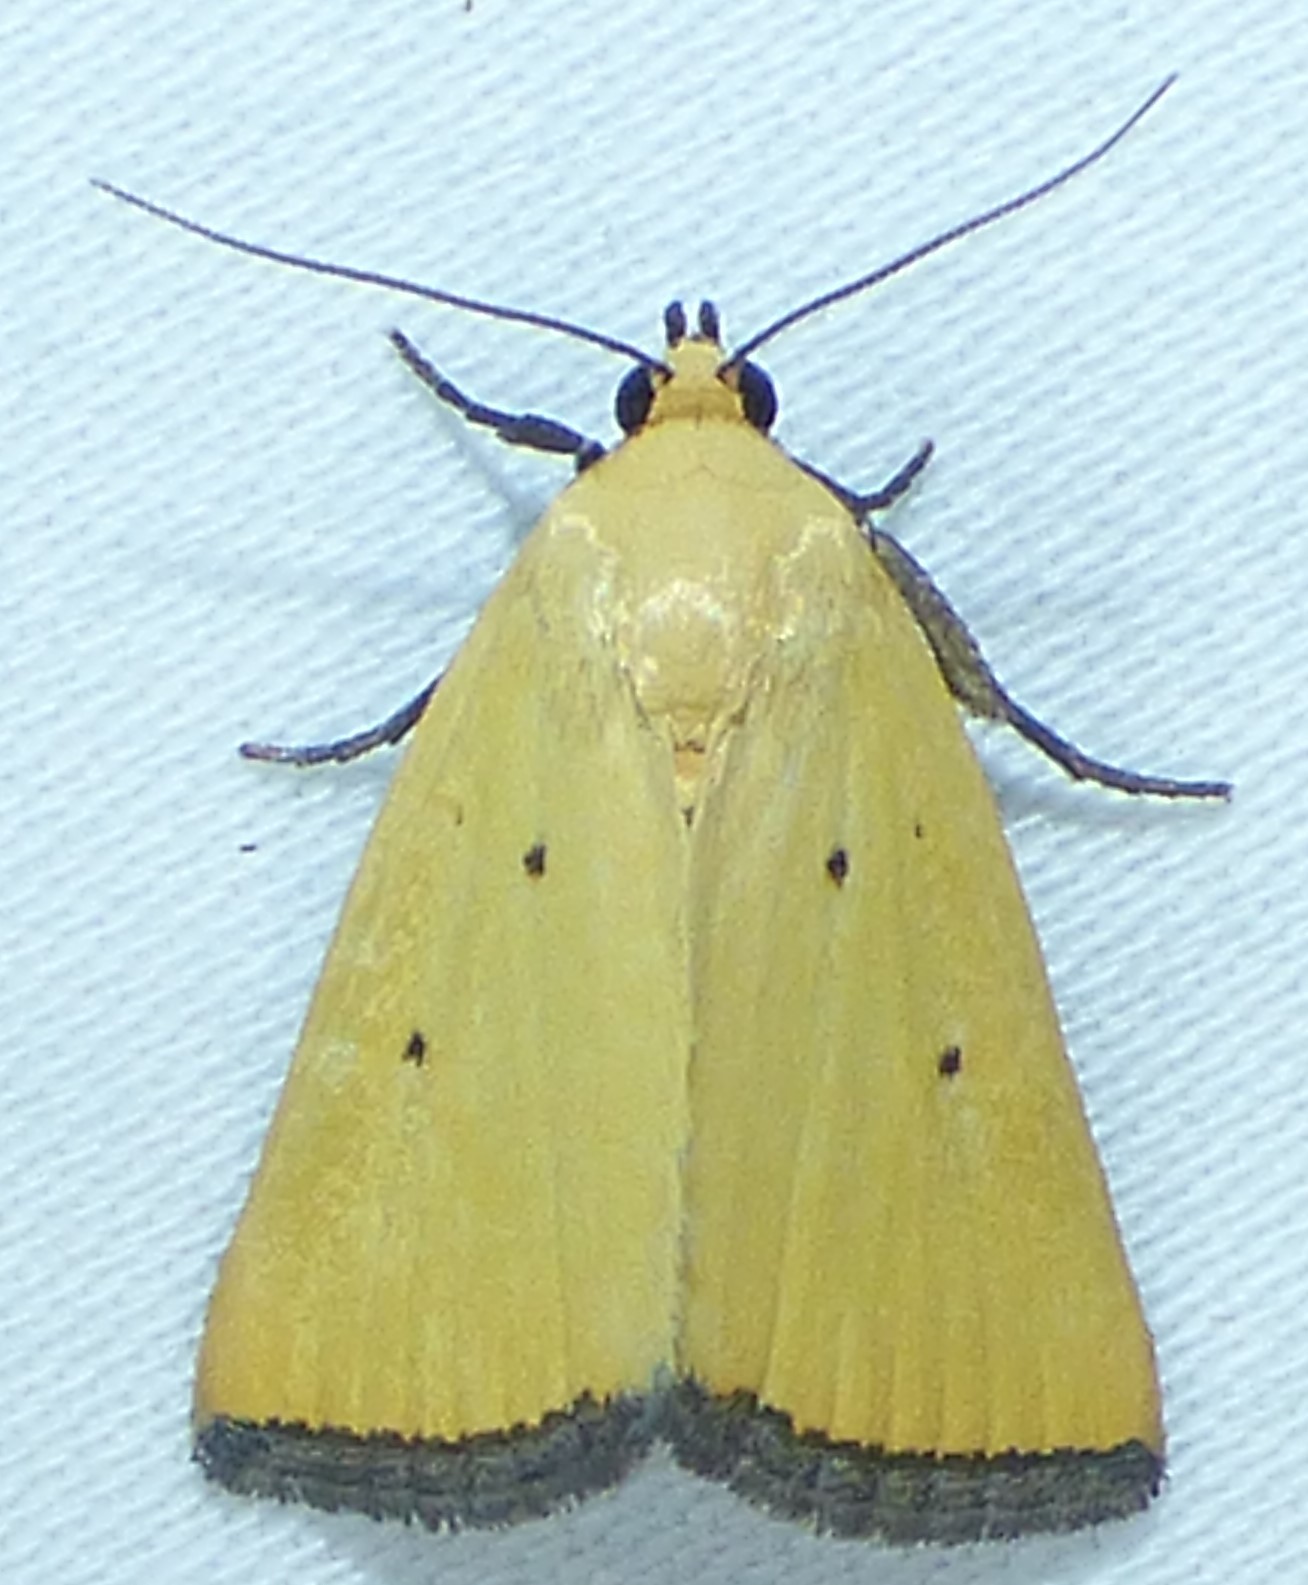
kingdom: Animalia
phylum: Arthropoda
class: Insecta
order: Lepidoptera
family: Noctuidae
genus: Marimatha
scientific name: Marimatha nigrofimbria
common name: Black-bordered lemon moth
